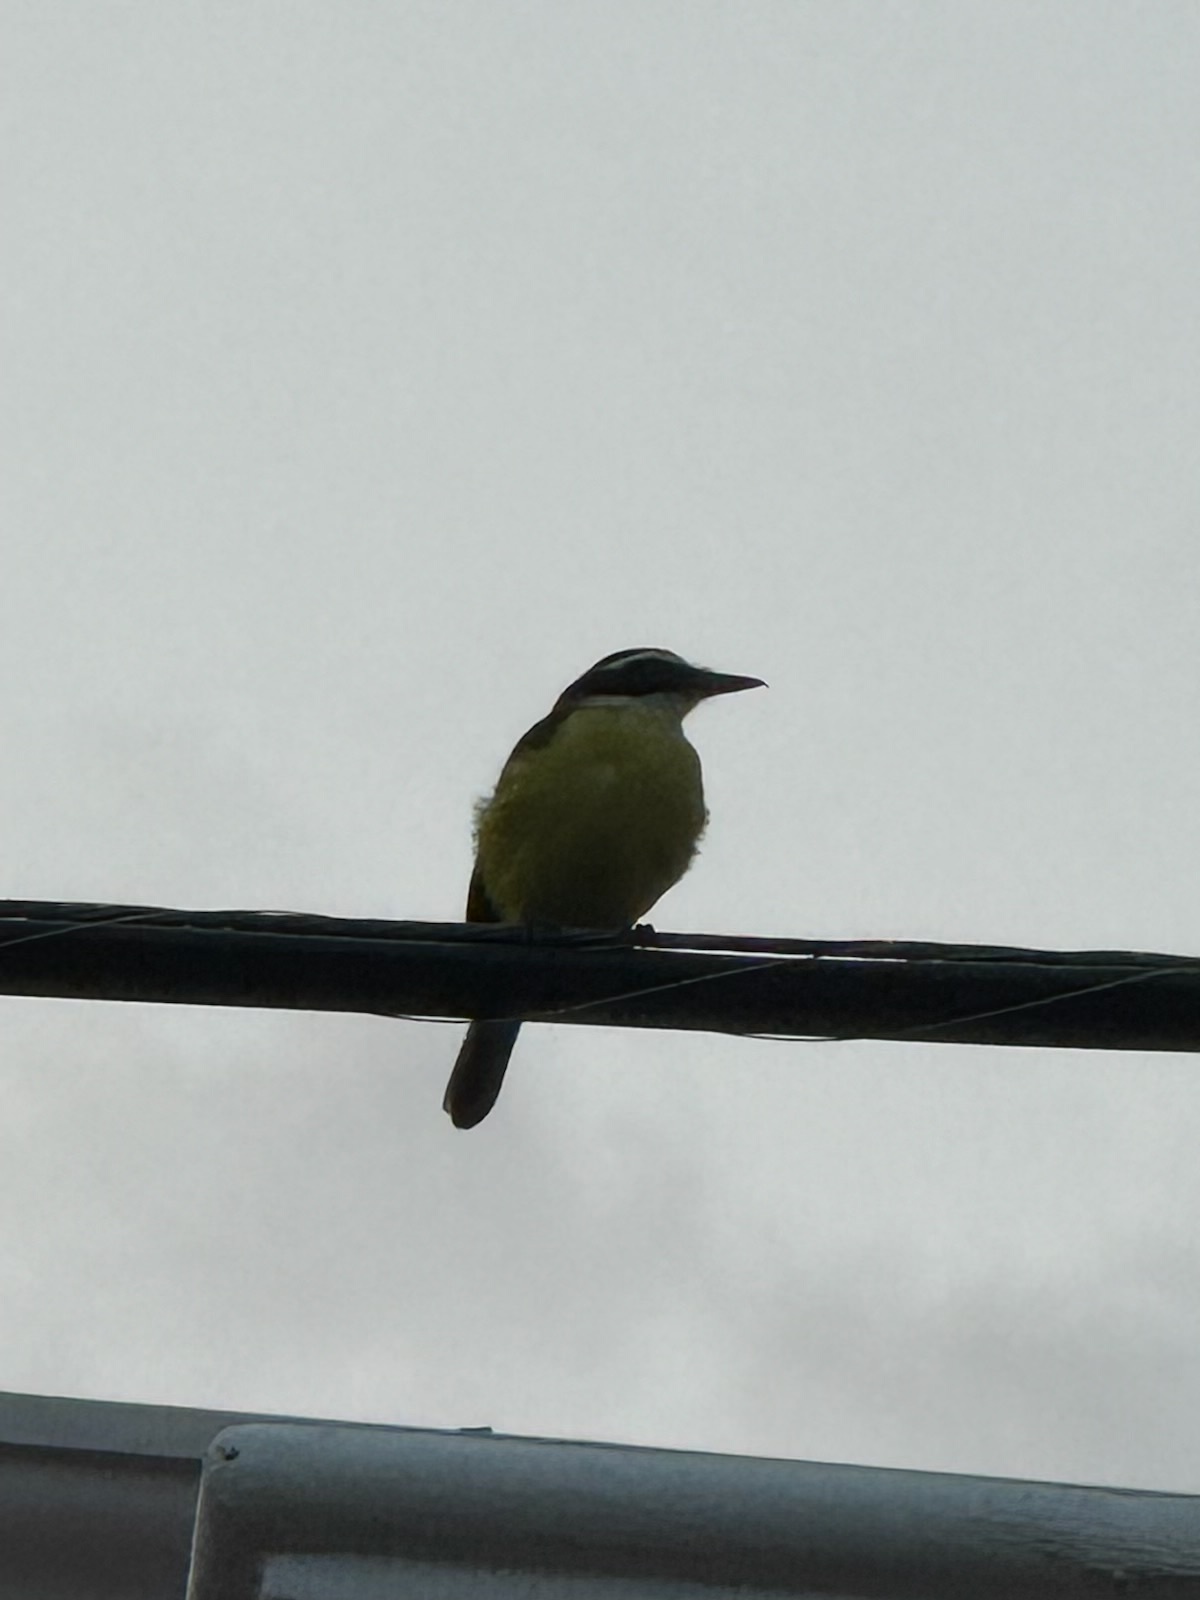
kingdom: Animalia
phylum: Chordata
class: Aves
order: Passeriformes
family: Tyrannidae
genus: Pitangus
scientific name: Pitangus sulphuratus
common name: Great kiskadee
